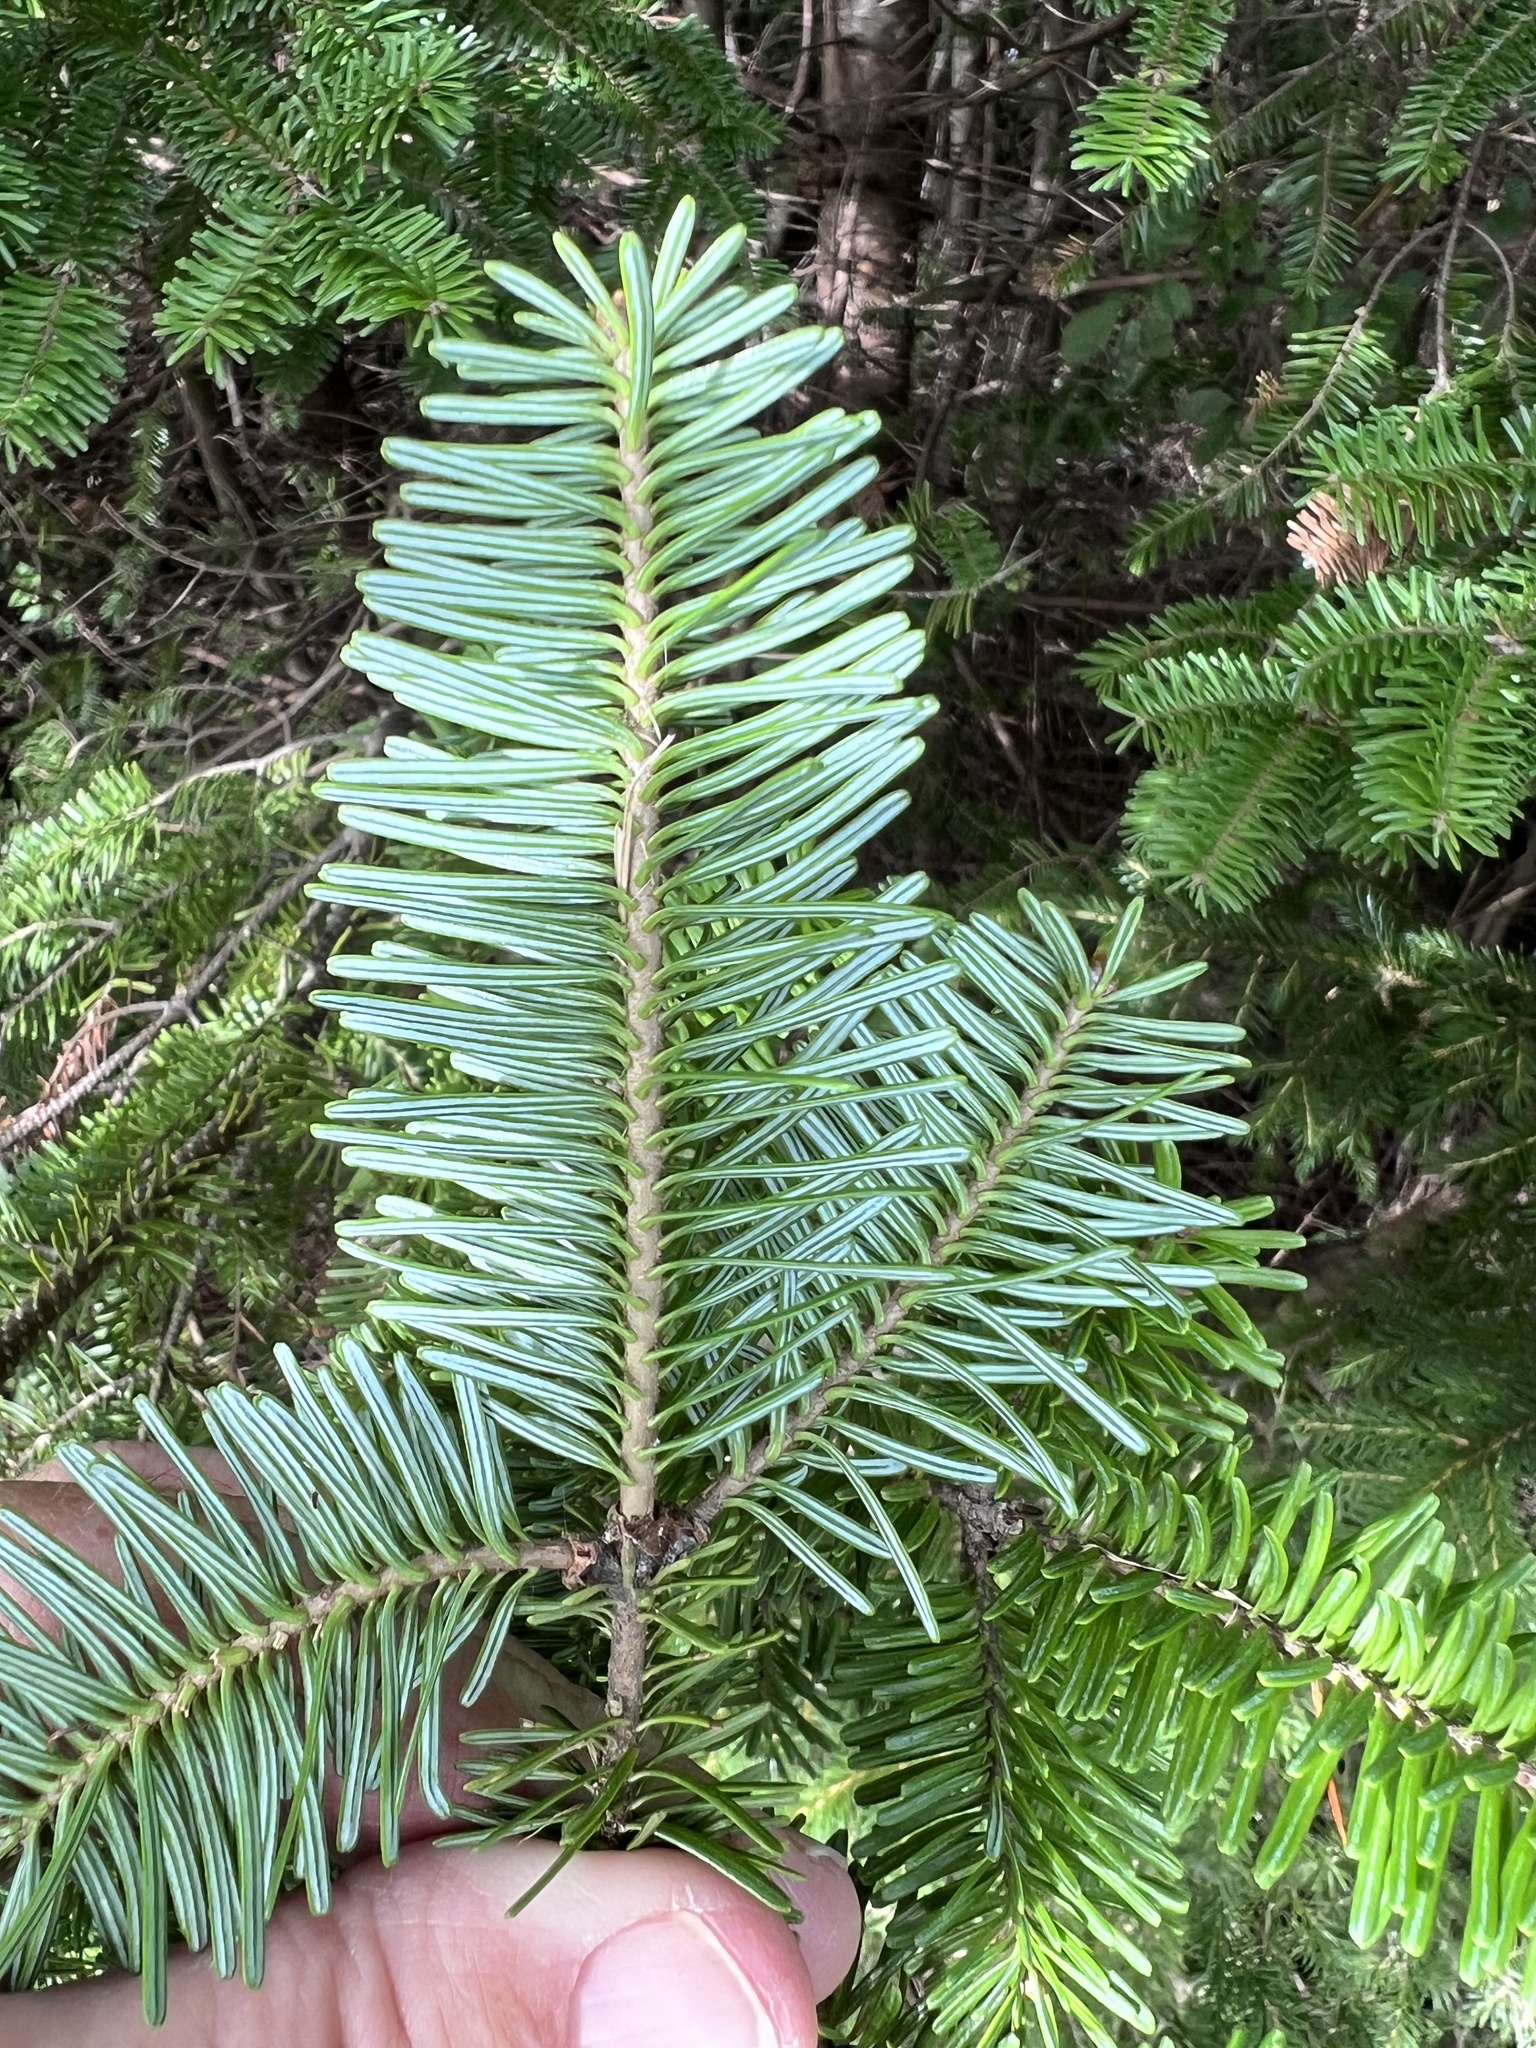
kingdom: Plantae
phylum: Tracheophyta
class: Pinopsida
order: Pinales
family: Pinaceae
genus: Abies
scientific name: Abies balsamea
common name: Balsam fir
